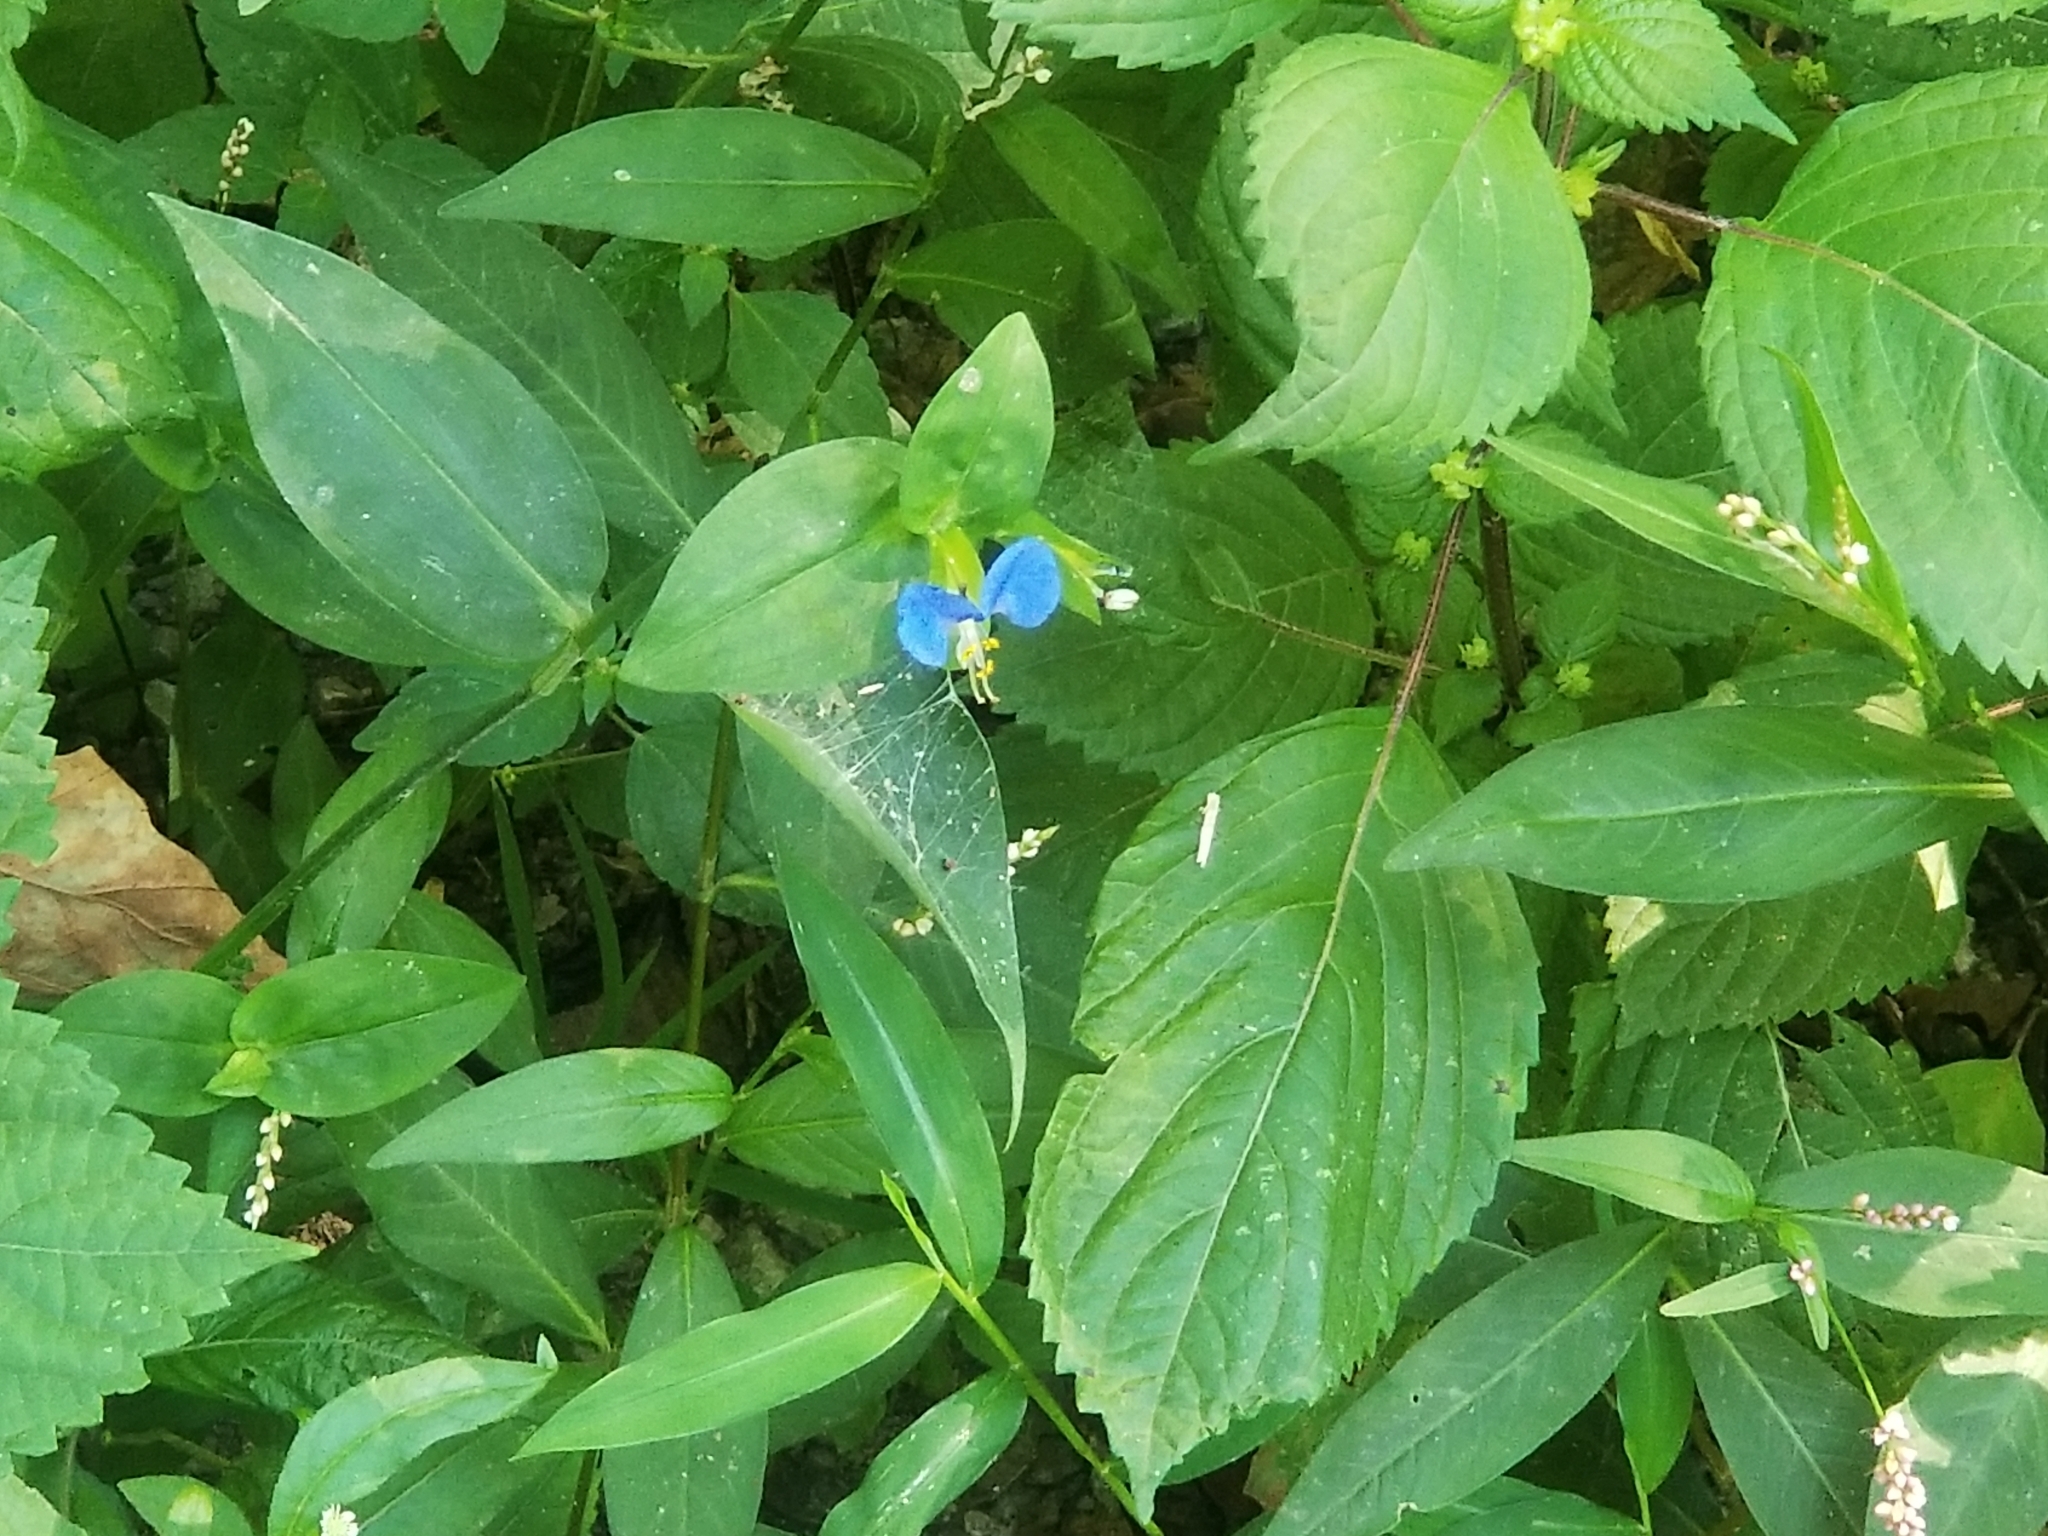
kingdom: Plantae
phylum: Tracheophyta
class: Liliopsida
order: Commelinales
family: Commelinaceae
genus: Commelina
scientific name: Commelina communis
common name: Asiatic dayflower
